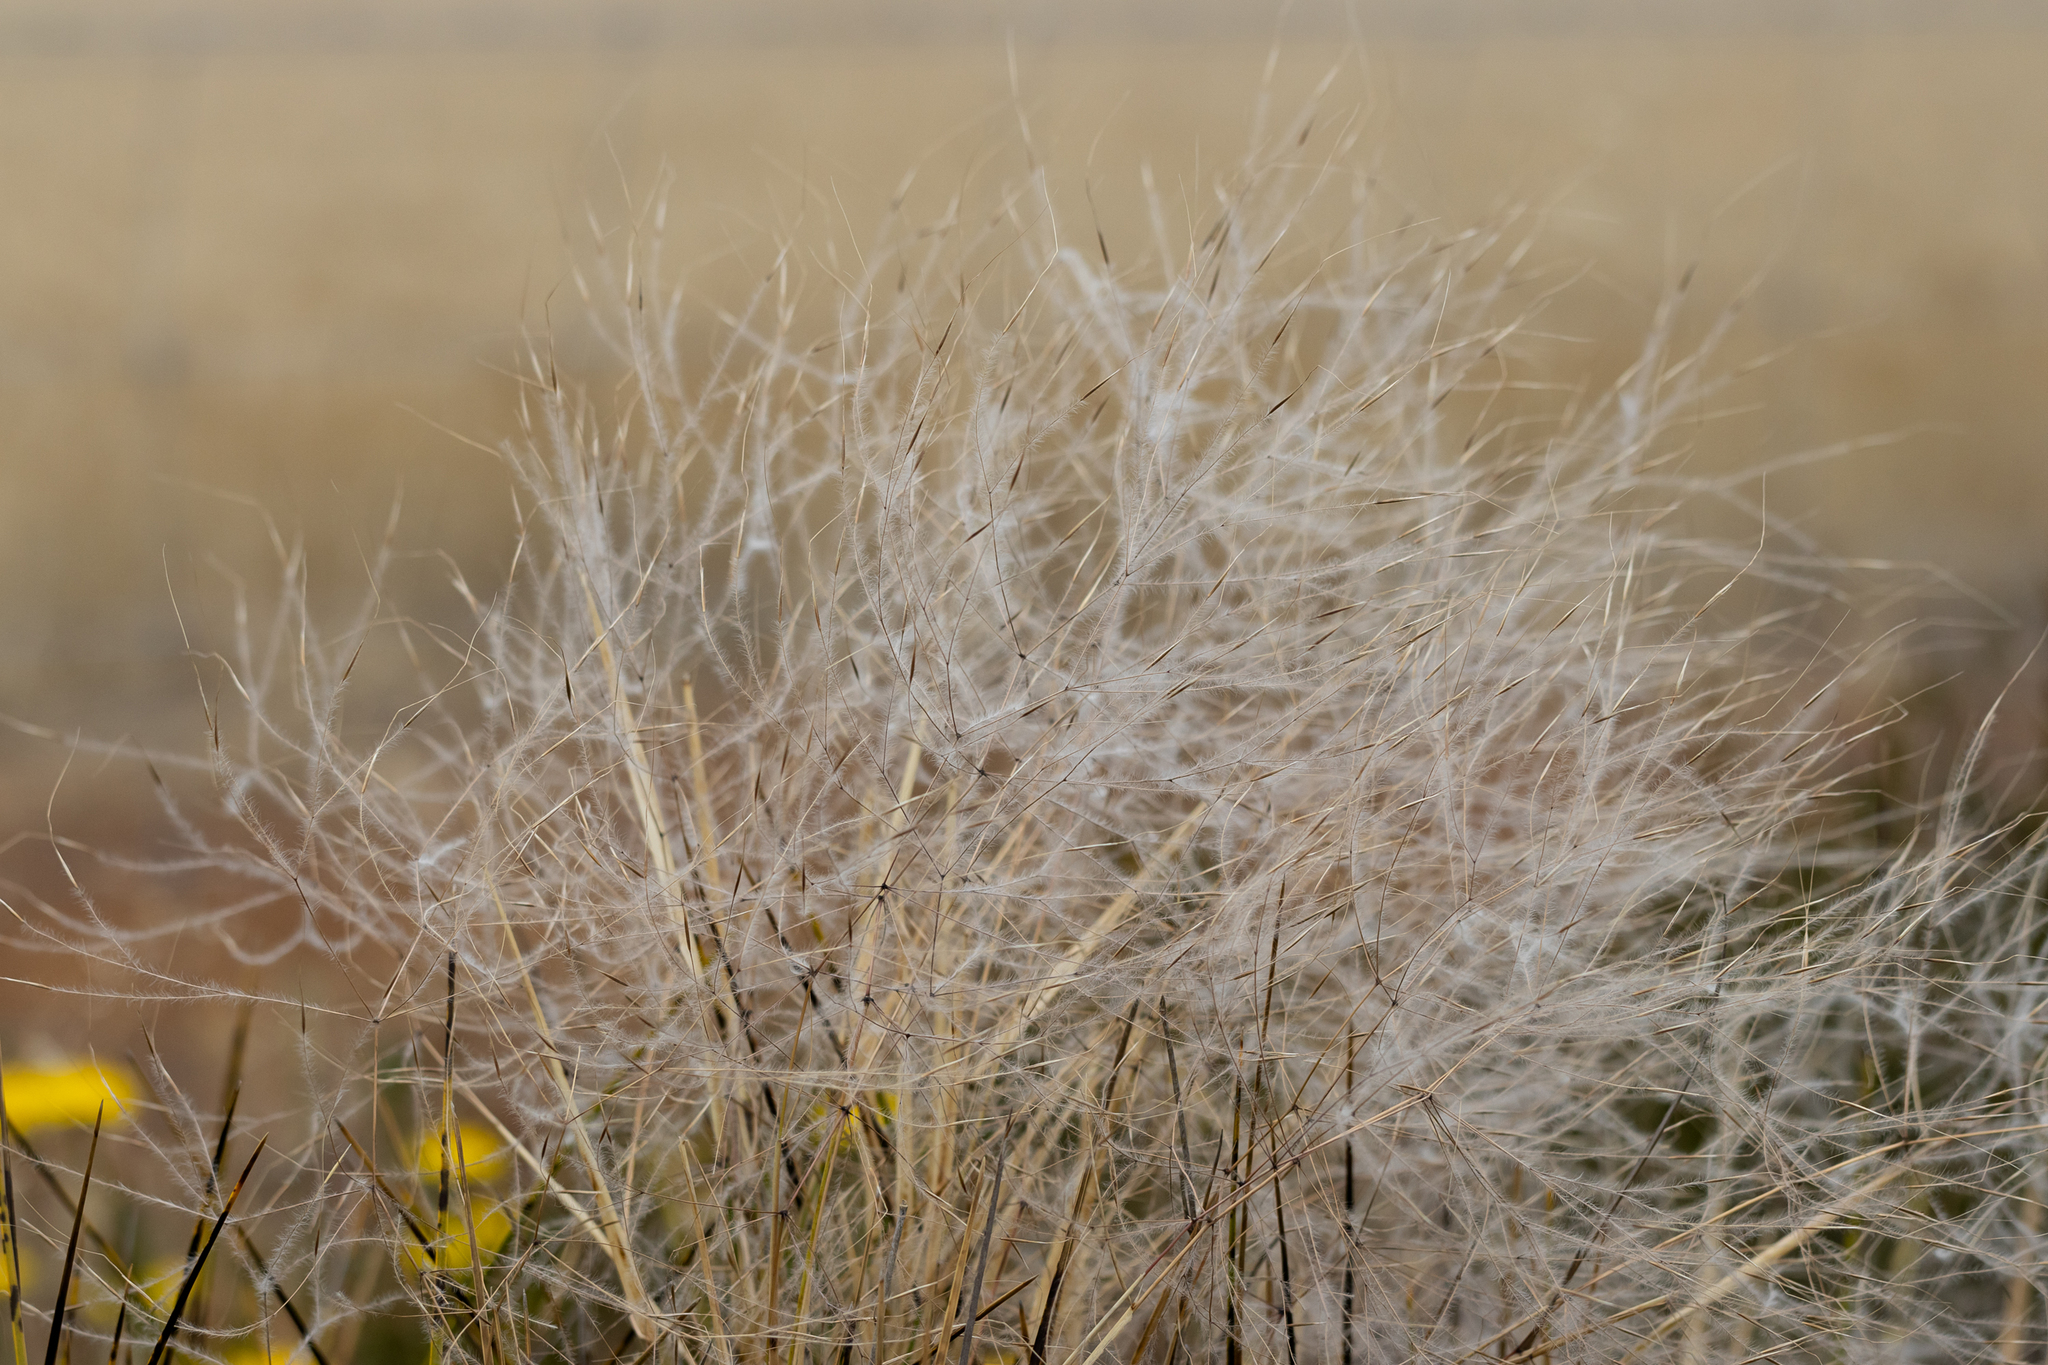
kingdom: Plantae
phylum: Tracheophyta
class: Liliopsida
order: Poales
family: Poaceae
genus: Austrostipa
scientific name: Austrostipa elegantissima
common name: Feather spear grass
